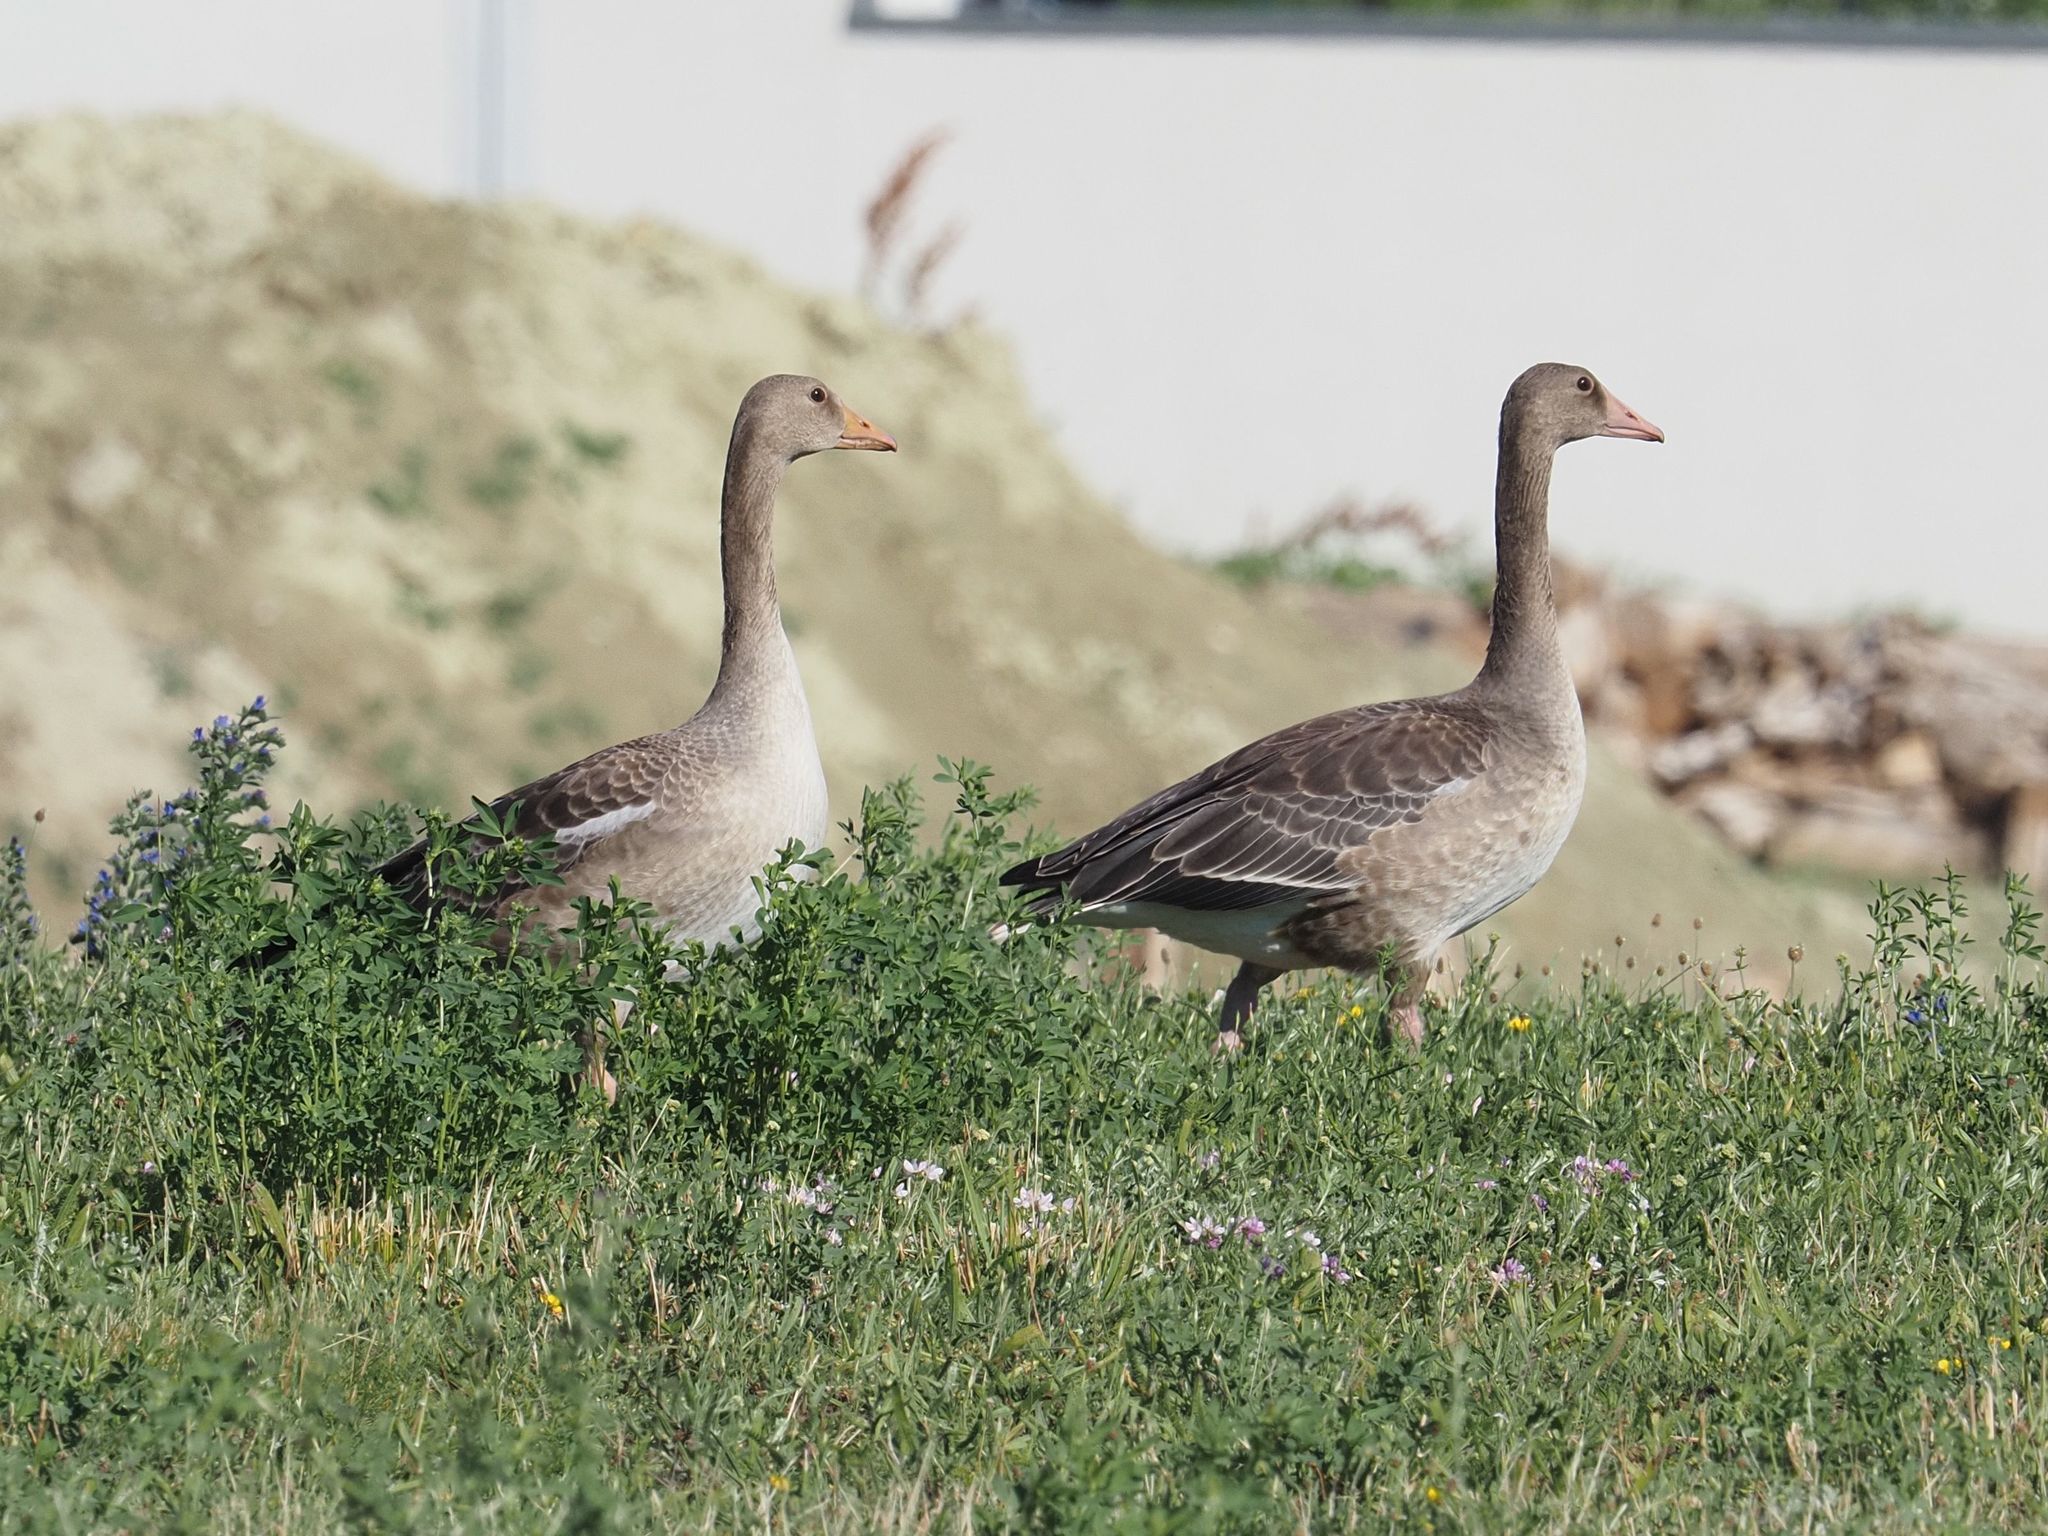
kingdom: Animalia
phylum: Chordata
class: Aves
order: Anseriformes
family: Anatidae
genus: Anser
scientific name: Anser anser
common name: Greylag goose
